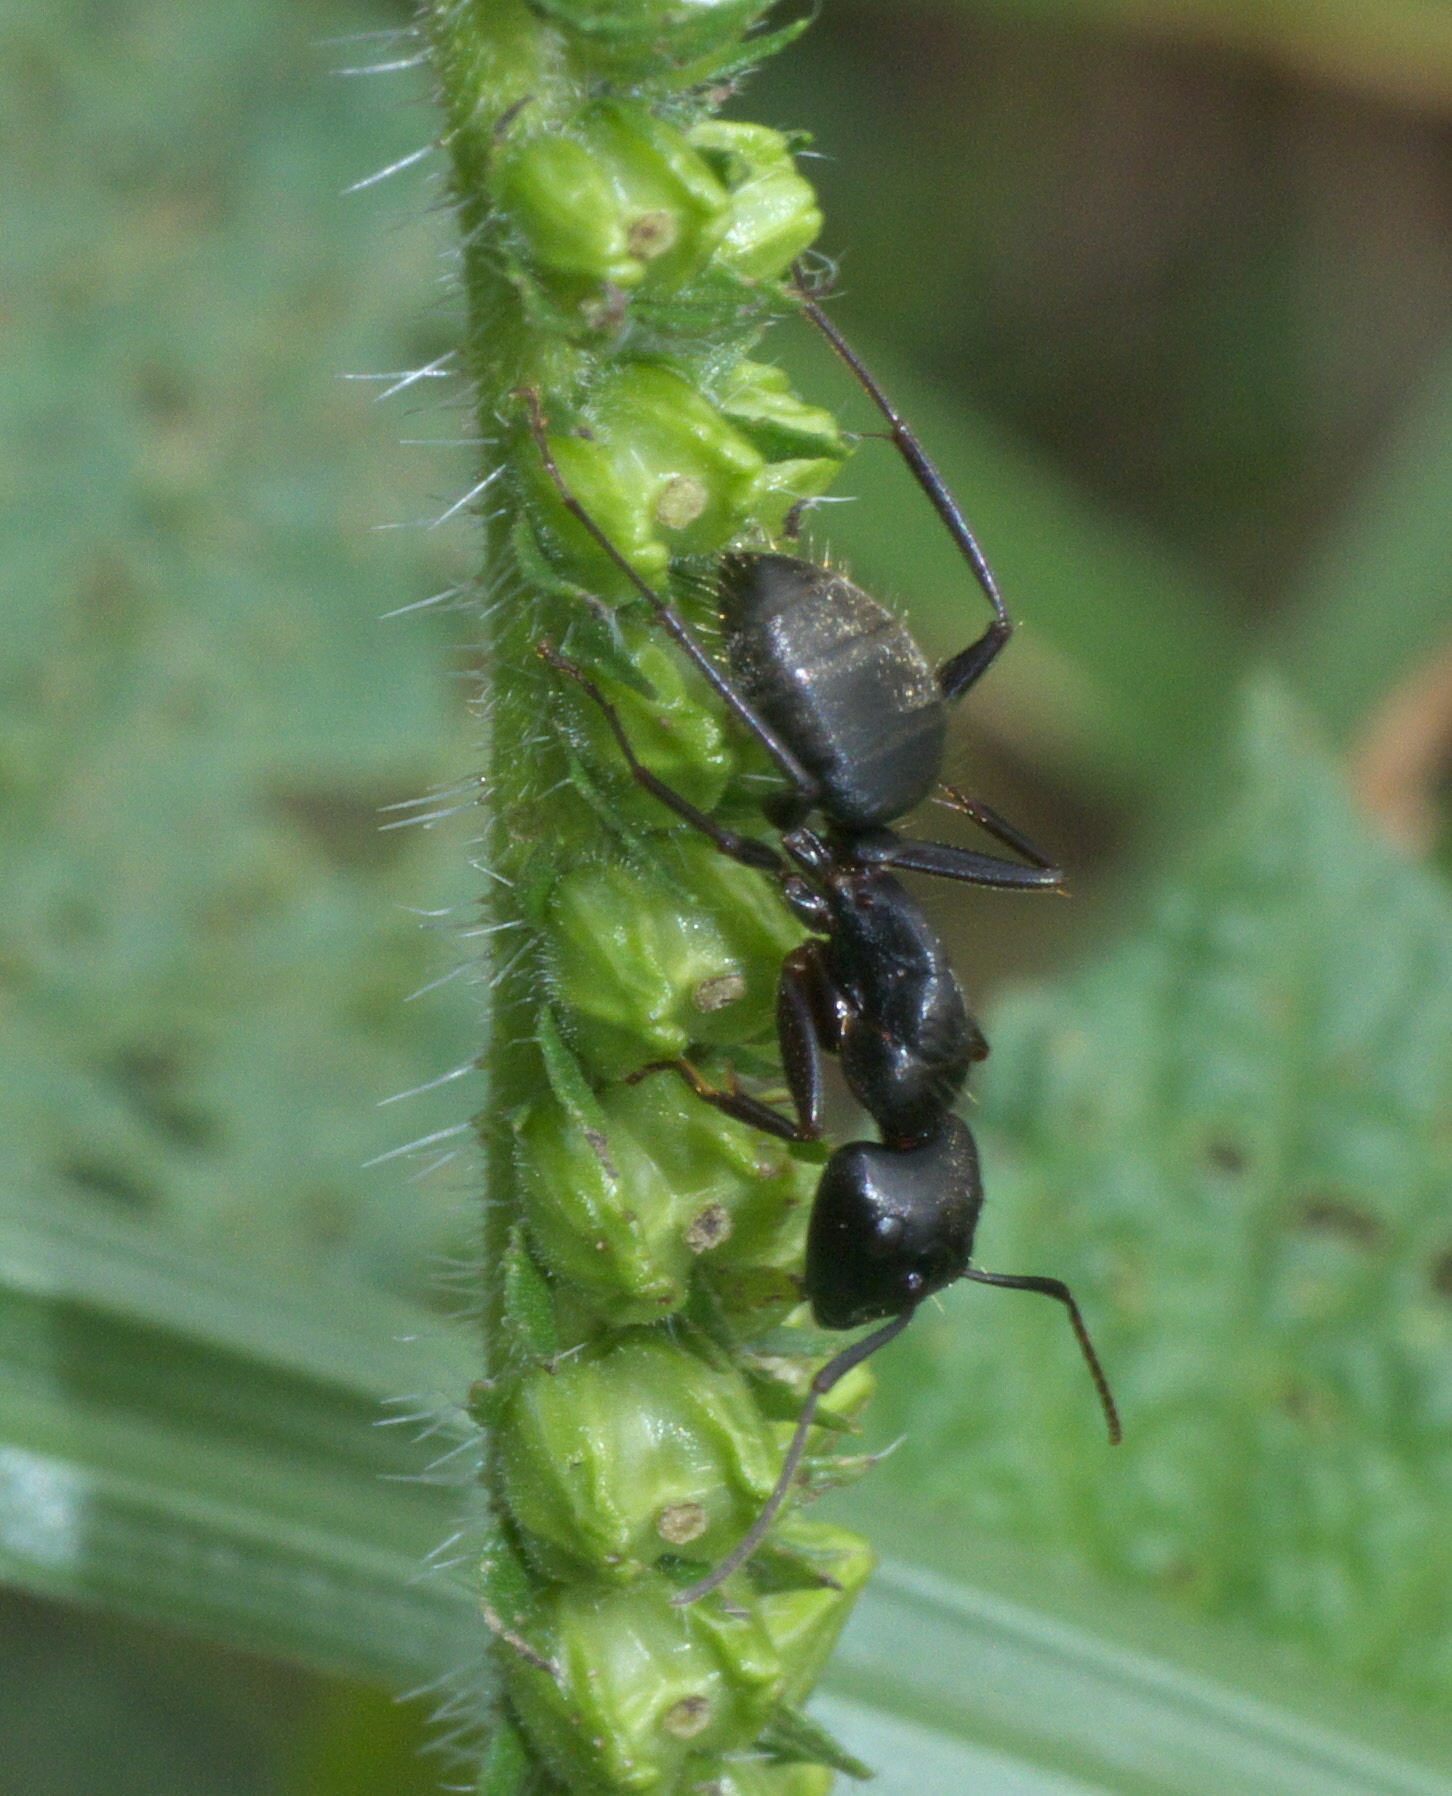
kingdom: Animalia
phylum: Arthropoda
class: Insecta
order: Hymenoptera
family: Formicidae
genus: Camponotus
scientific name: Camponotus pennsylvanicus
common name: Black carpenter ant
